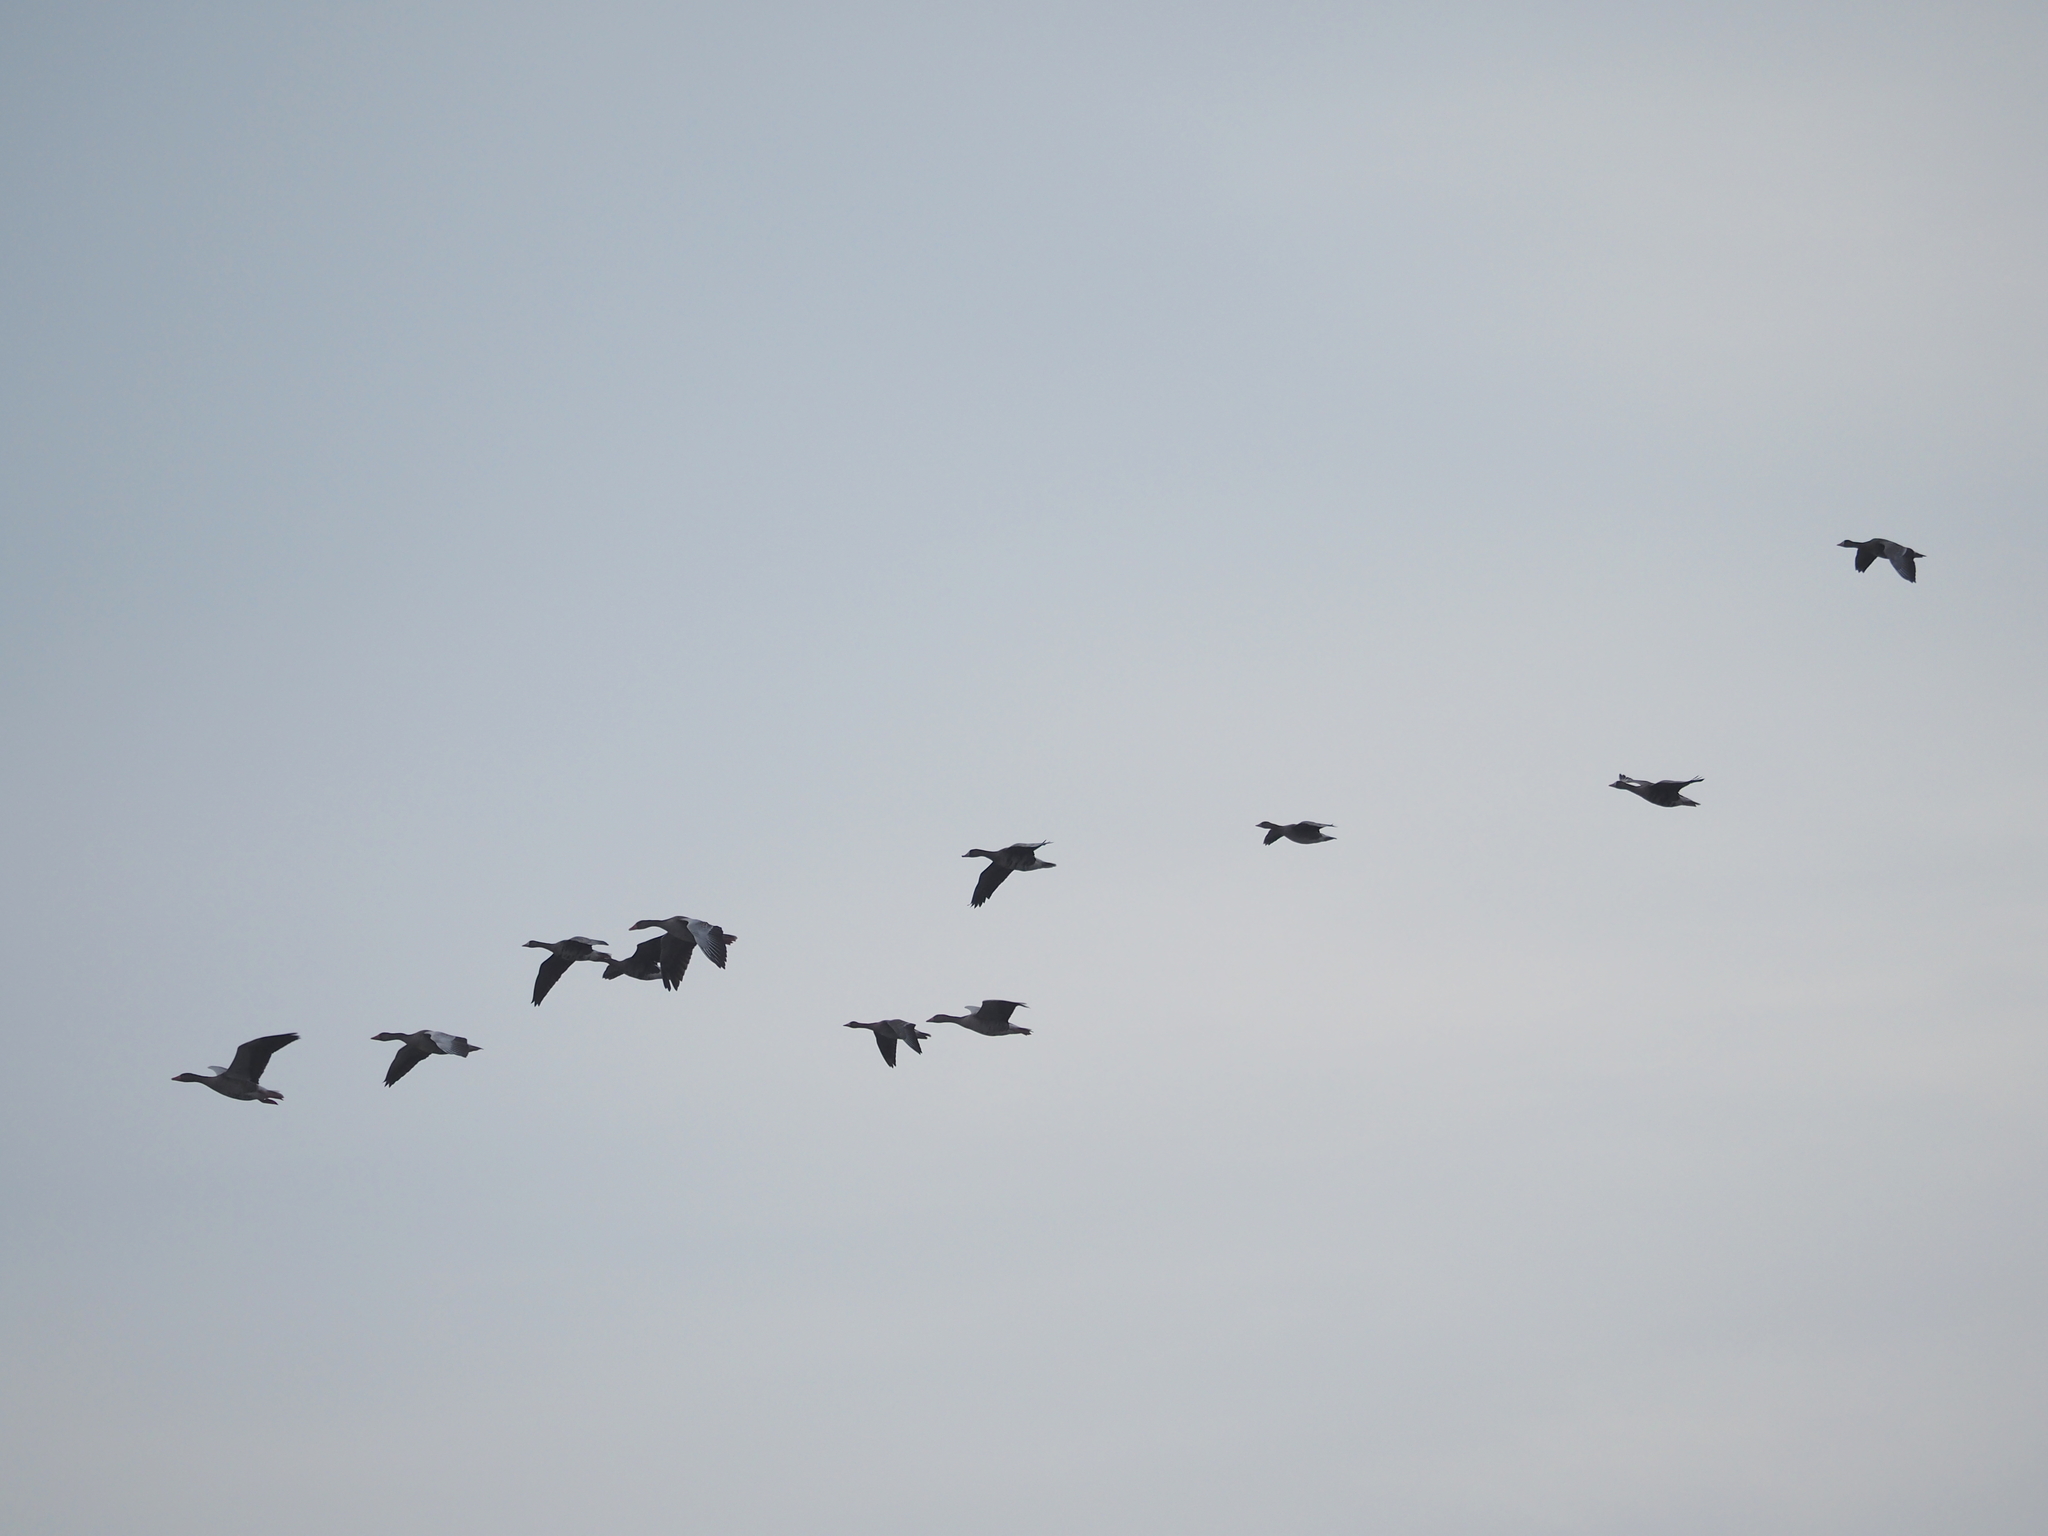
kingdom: Animalia
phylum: Chordata
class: Aves
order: Anseriformes
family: Anatidae
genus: Anser
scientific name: Anser anser
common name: Greylag goose
